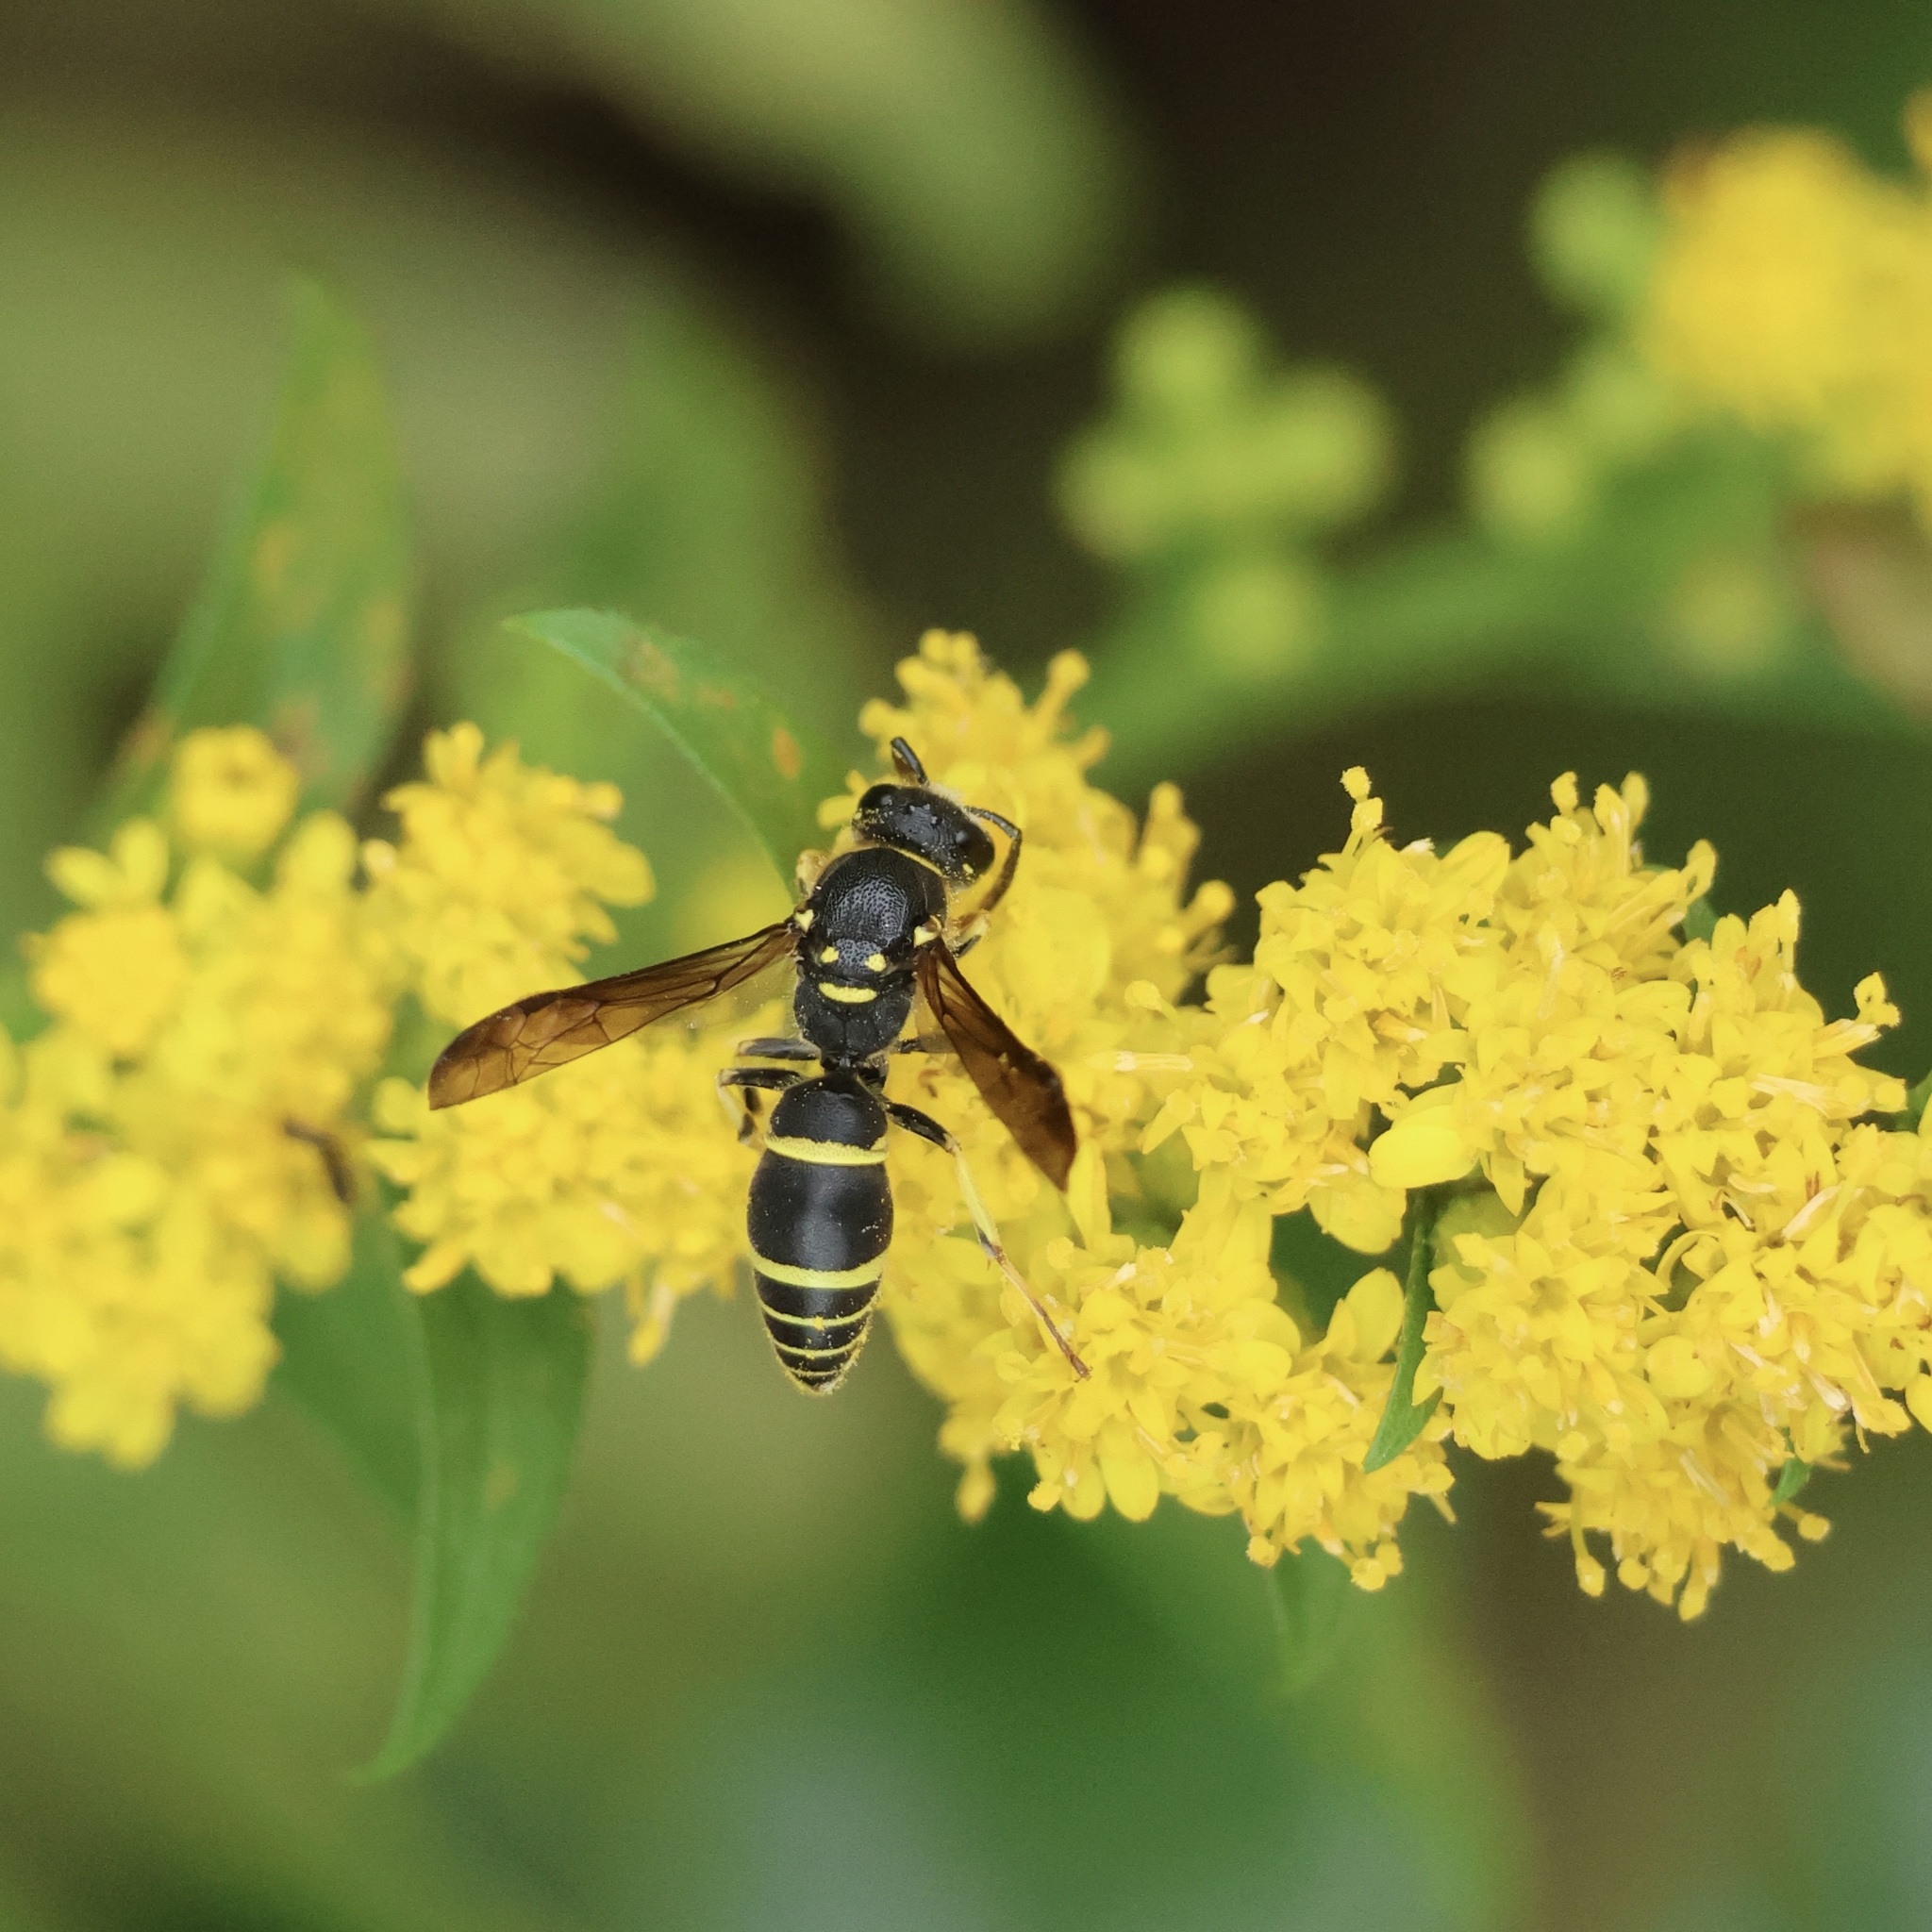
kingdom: Animalia
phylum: Arthropoda
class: Insecta
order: Hymenoptera
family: Vespidae
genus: Ancistrocerus
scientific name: Ancistrocerus adiabatus
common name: Bramble mason wasp
